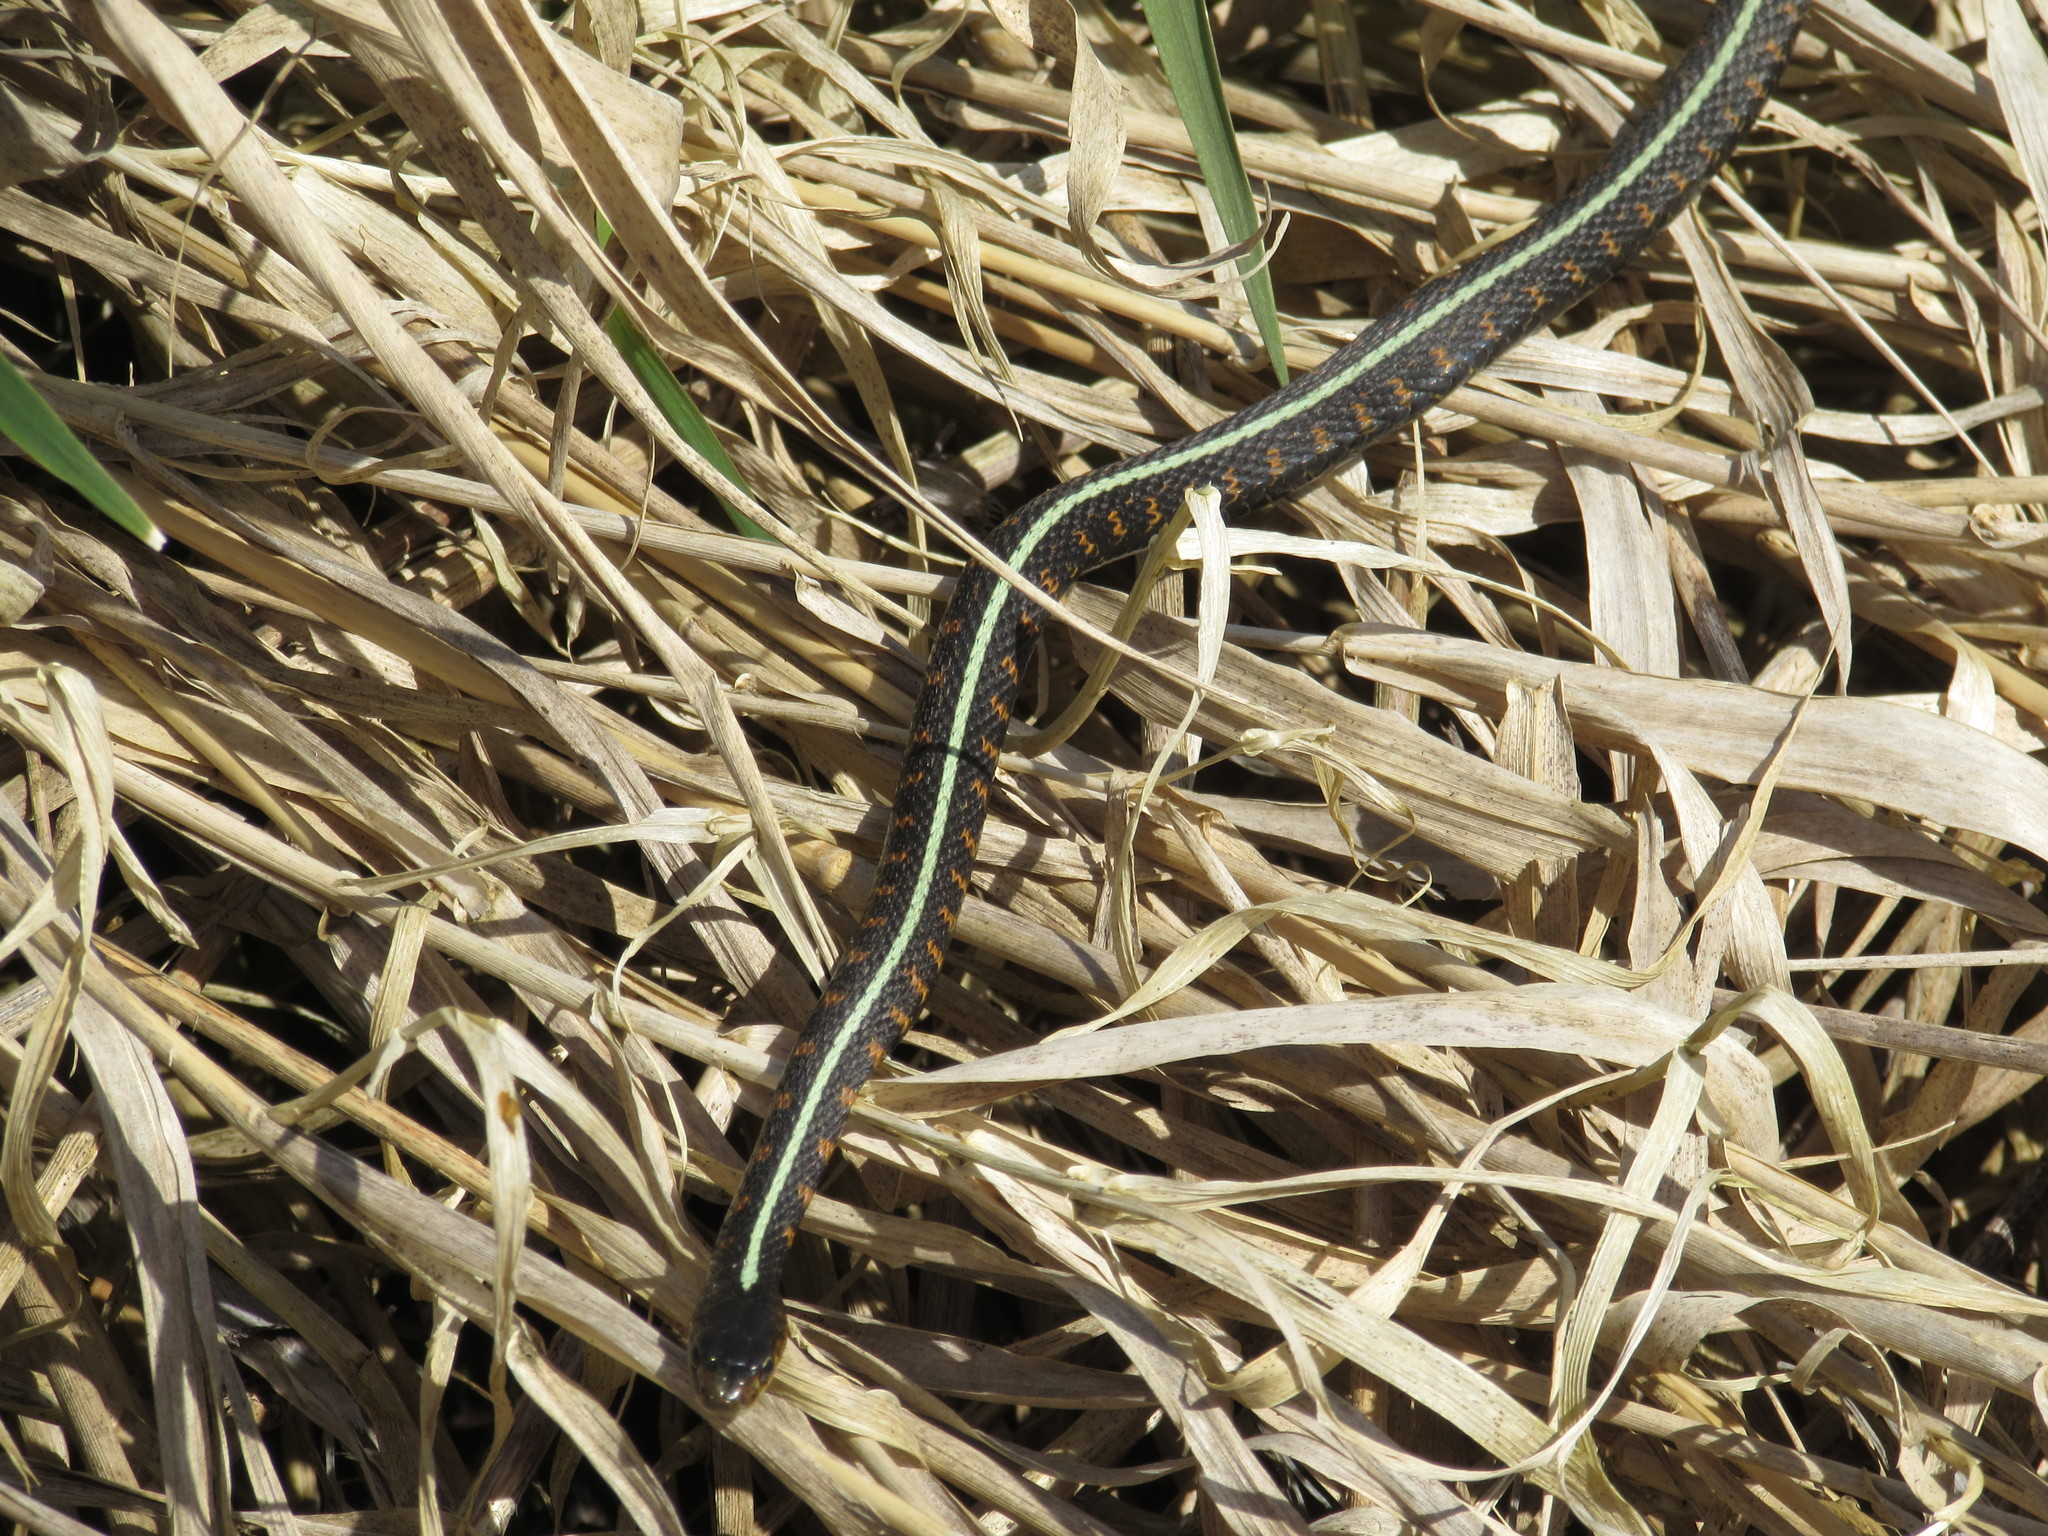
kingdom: Animalia
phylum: Chordata
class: Squamata
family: Colubridae
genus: Thamnophis
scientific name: Thamnophis sirtalis
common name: Common garter snake
